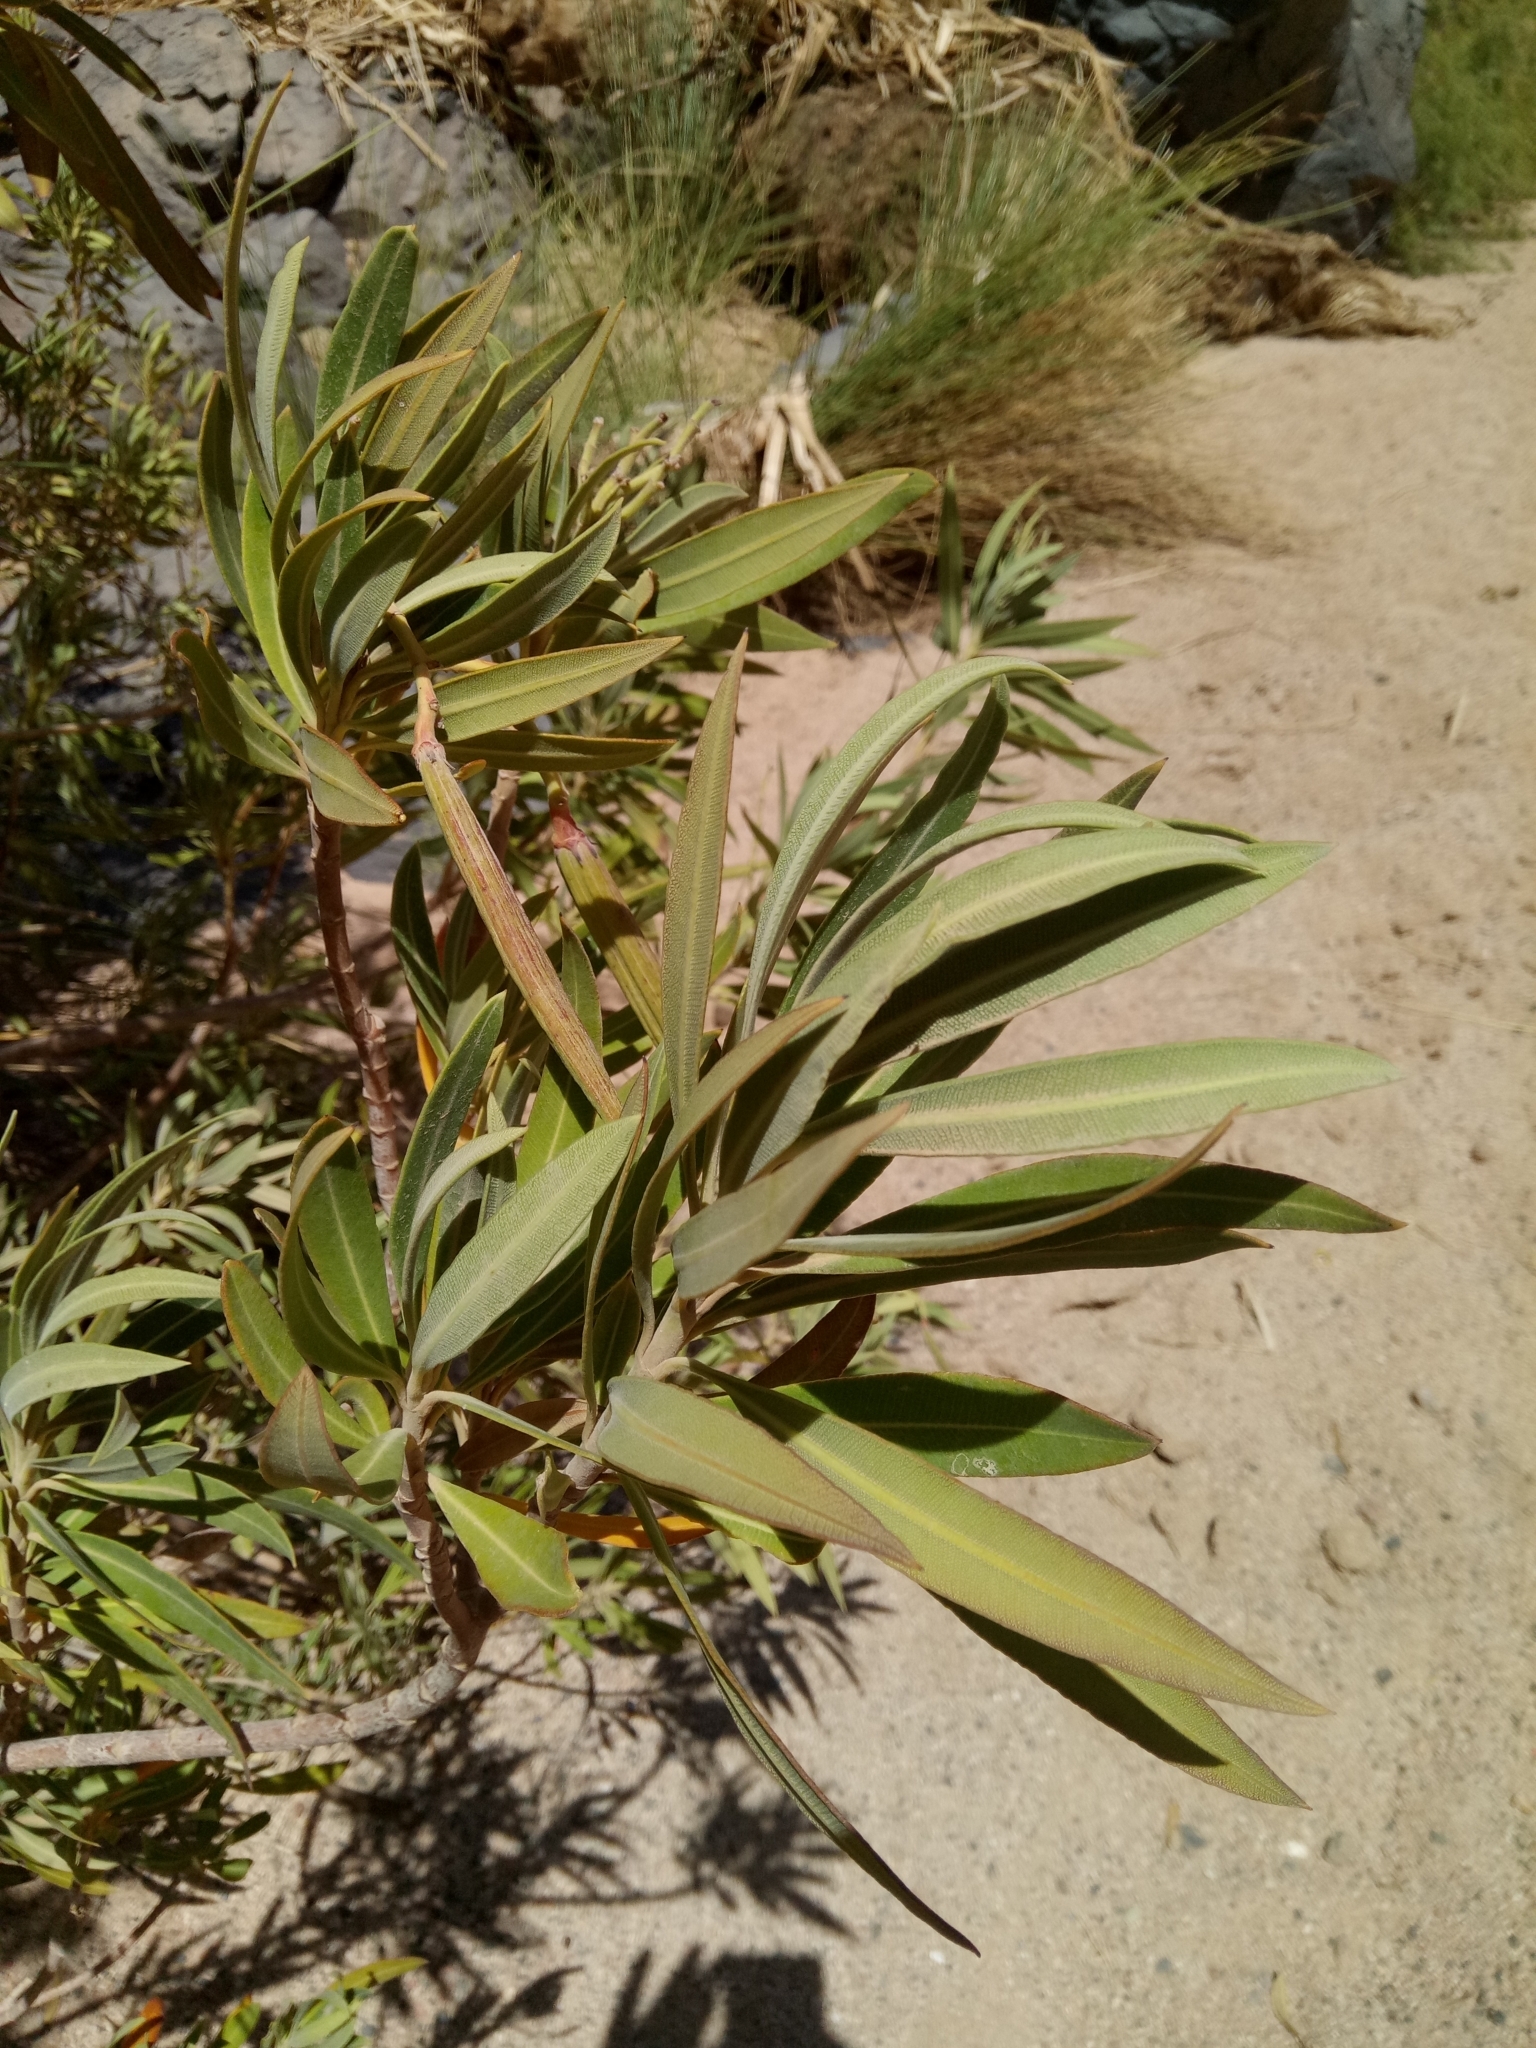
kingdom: Plantae
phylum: Tracheophyta
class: Magnoliopsida
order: Gentianales
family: Apocynaceae
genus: Nerium
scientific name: Nerium oleander
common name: Oleander
